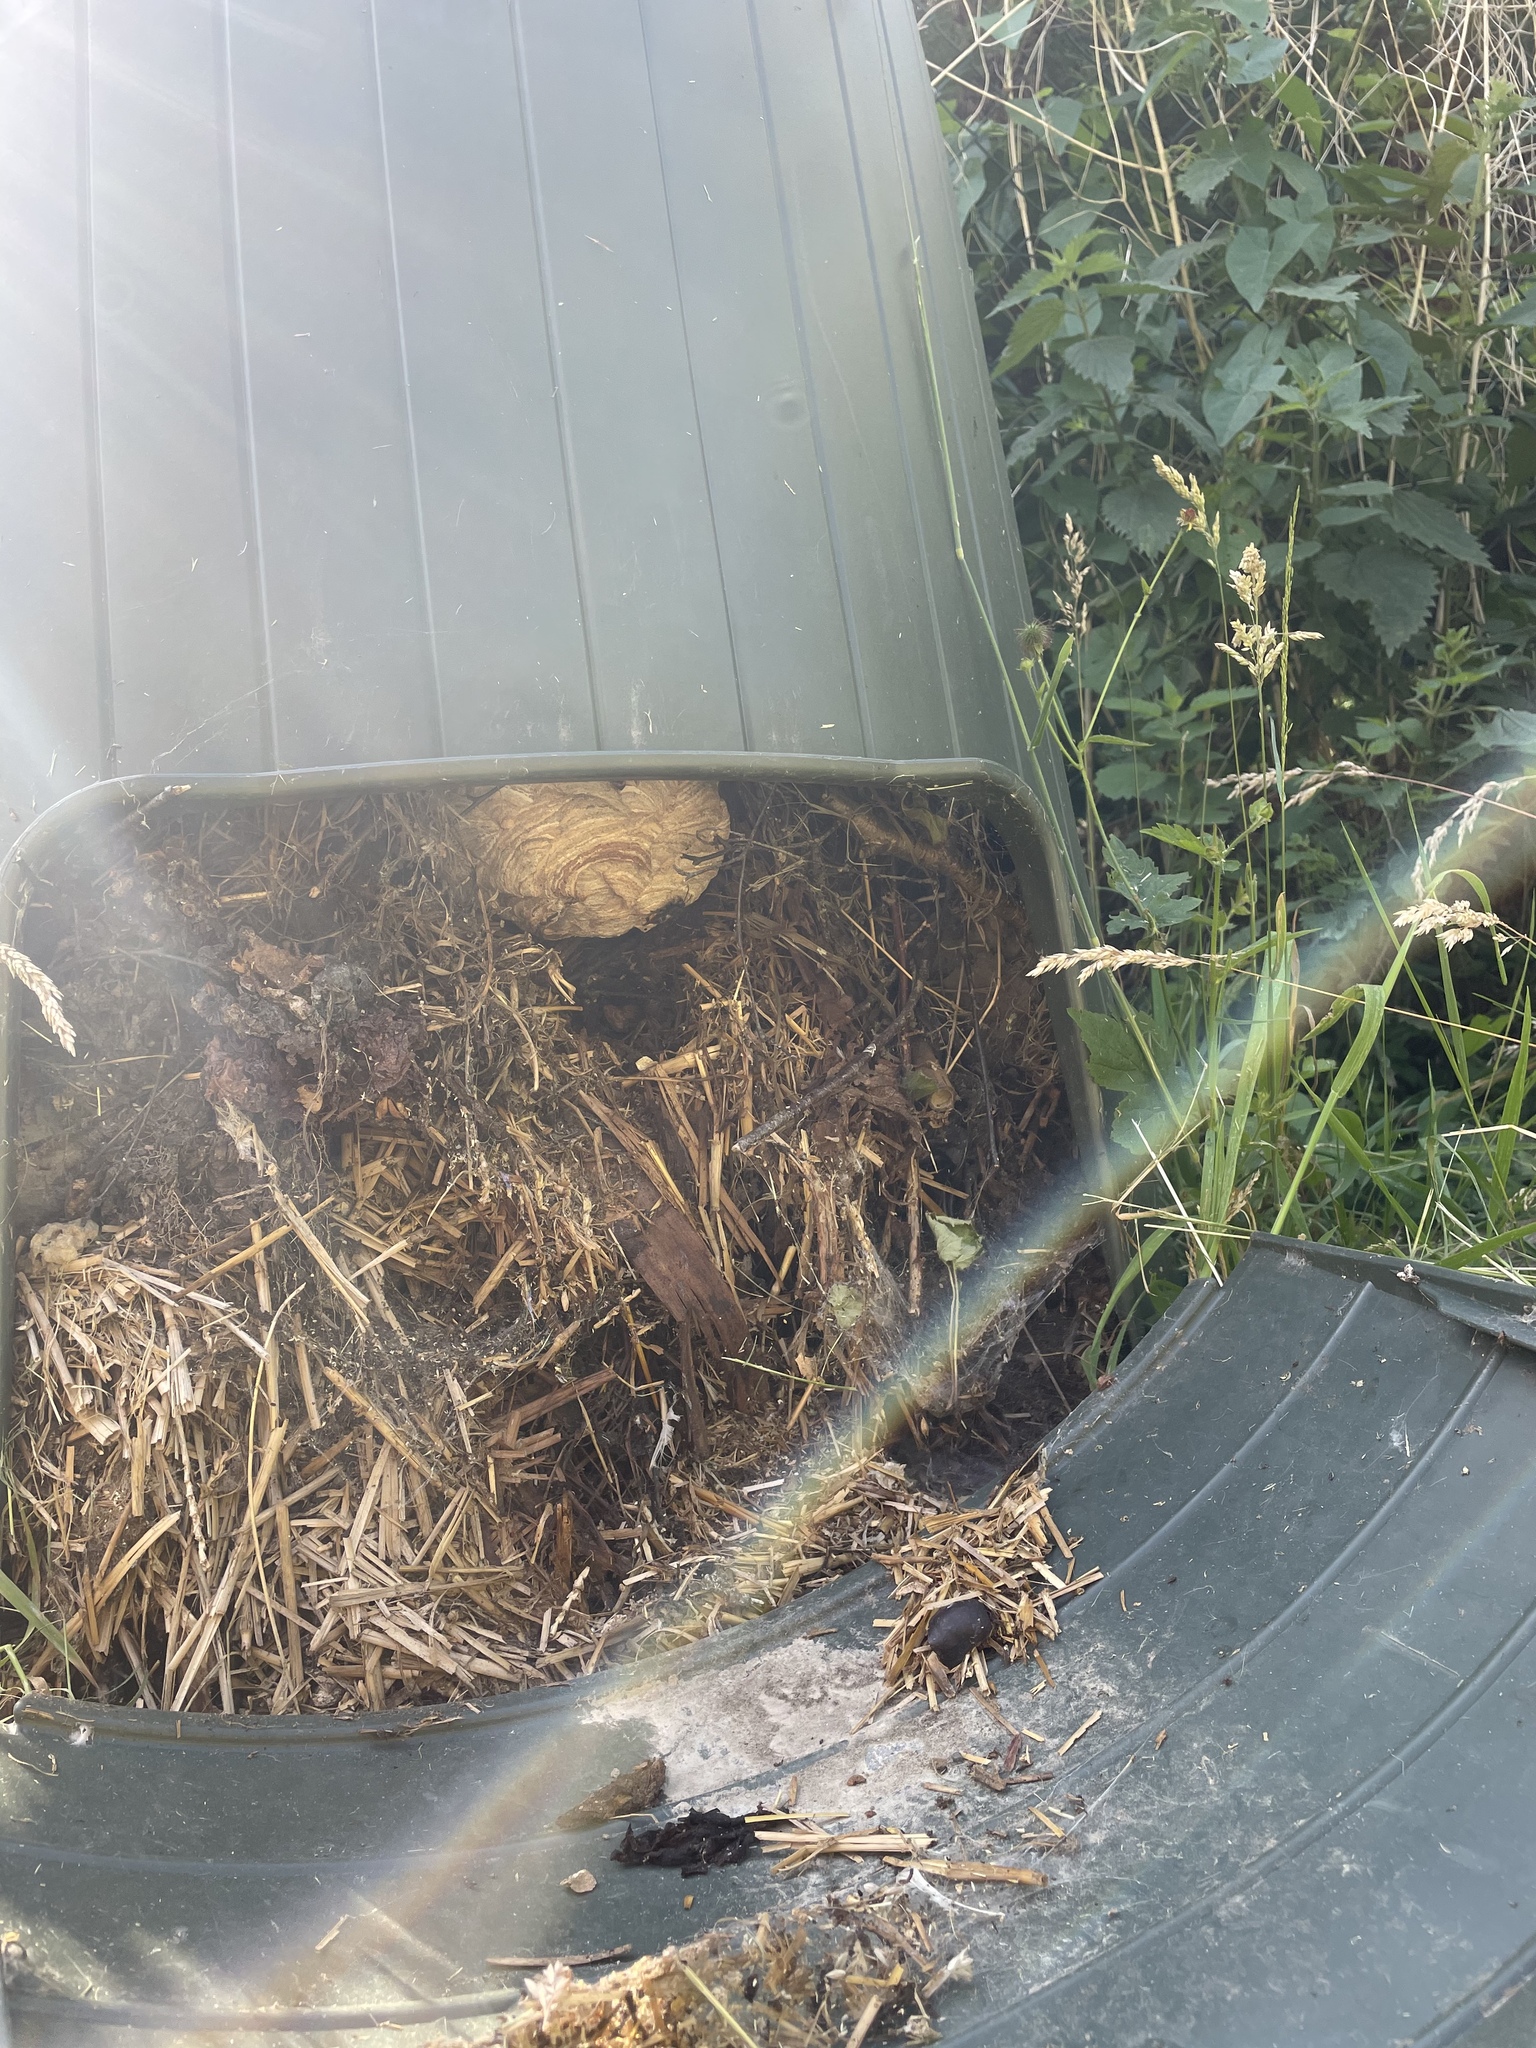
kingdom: Animalia
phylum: Arthropoda
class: Insecta
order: Hymenoptera
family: Vespidae
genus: Vespa
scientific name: Vespa velutina
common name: Asian hornet
